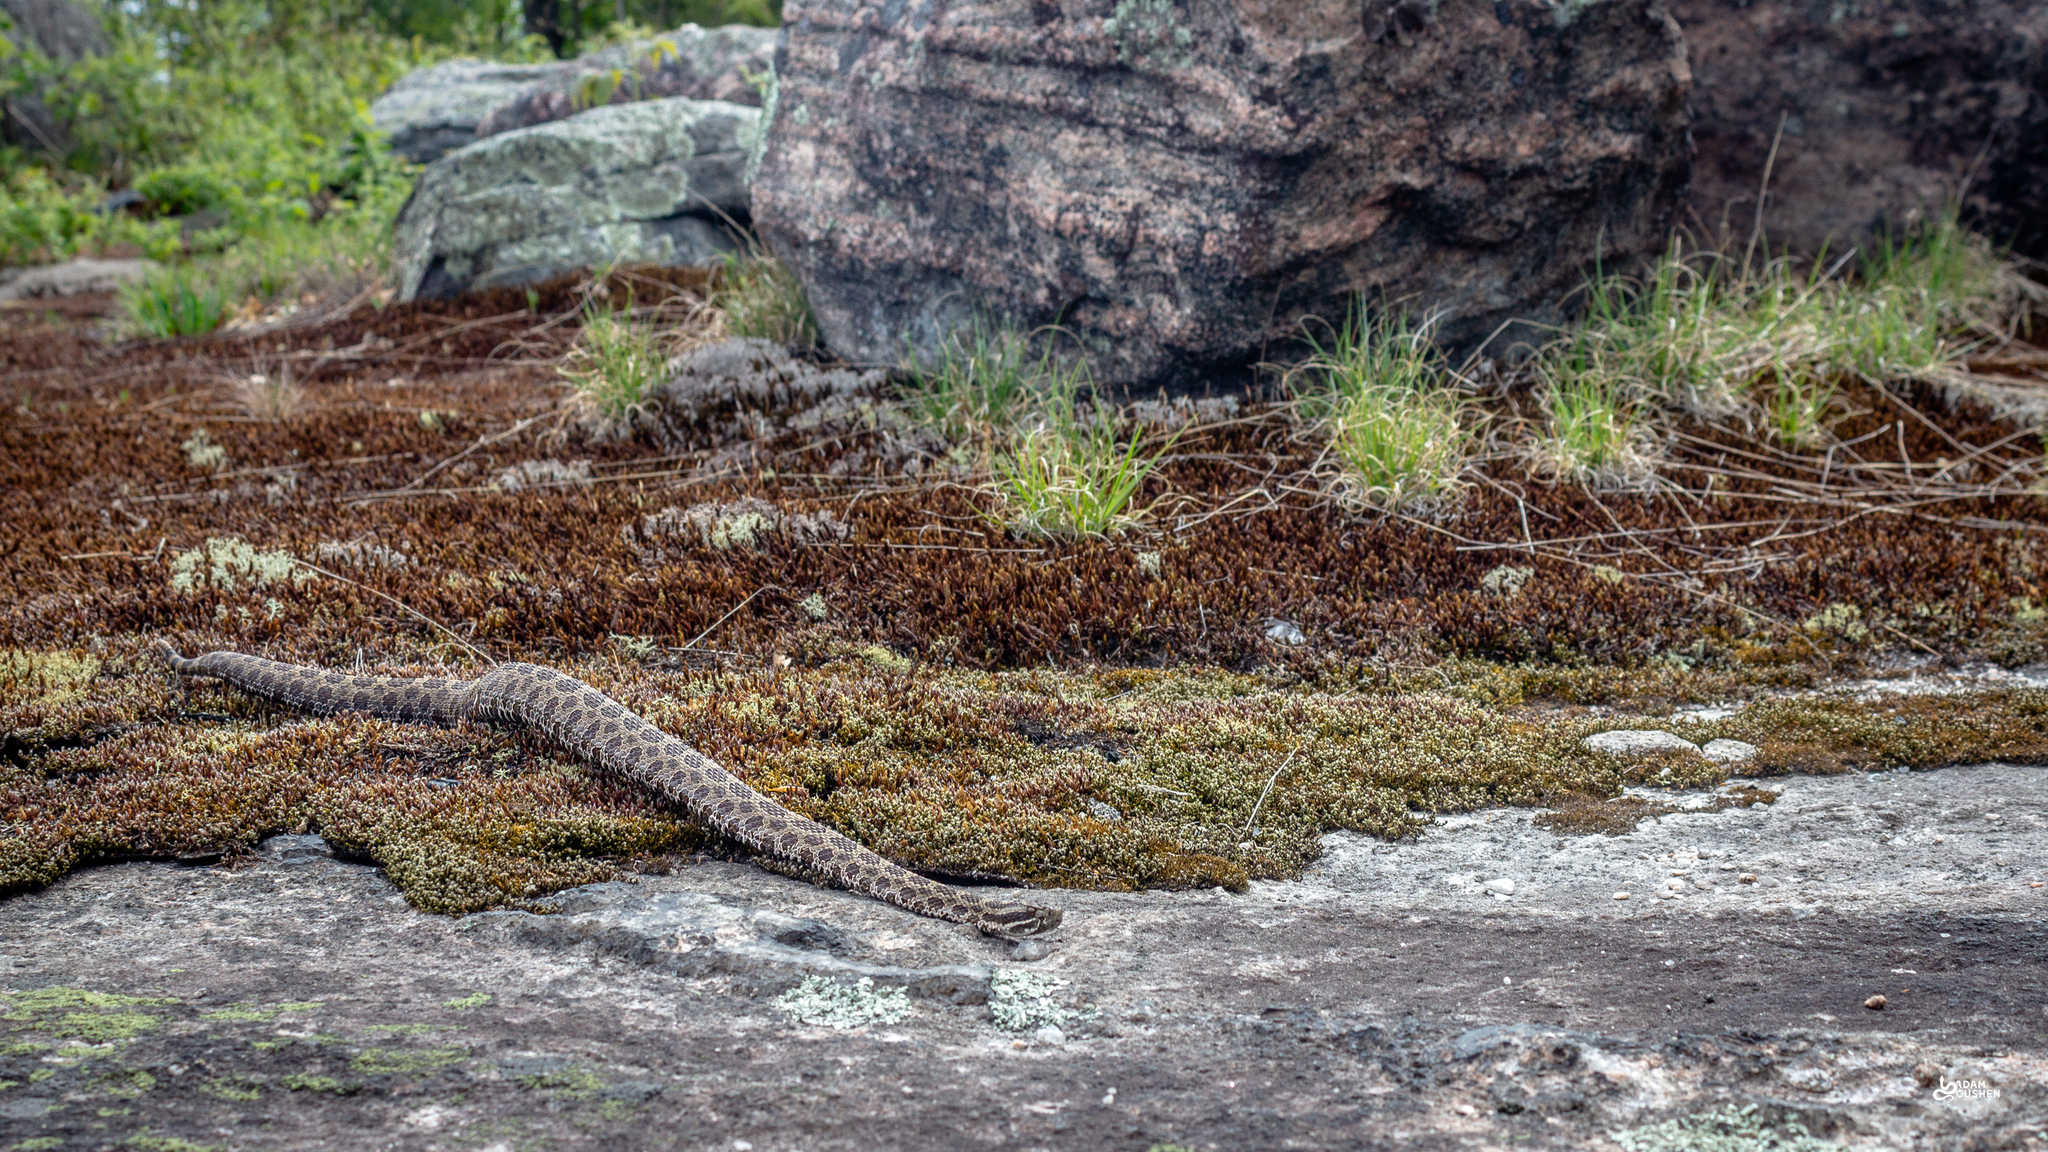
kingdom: Animalia
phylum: Chordata
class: Squamata
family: Viperidae
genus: Sistrurus
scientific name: Sistrurus catenatus
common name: Massasauga
